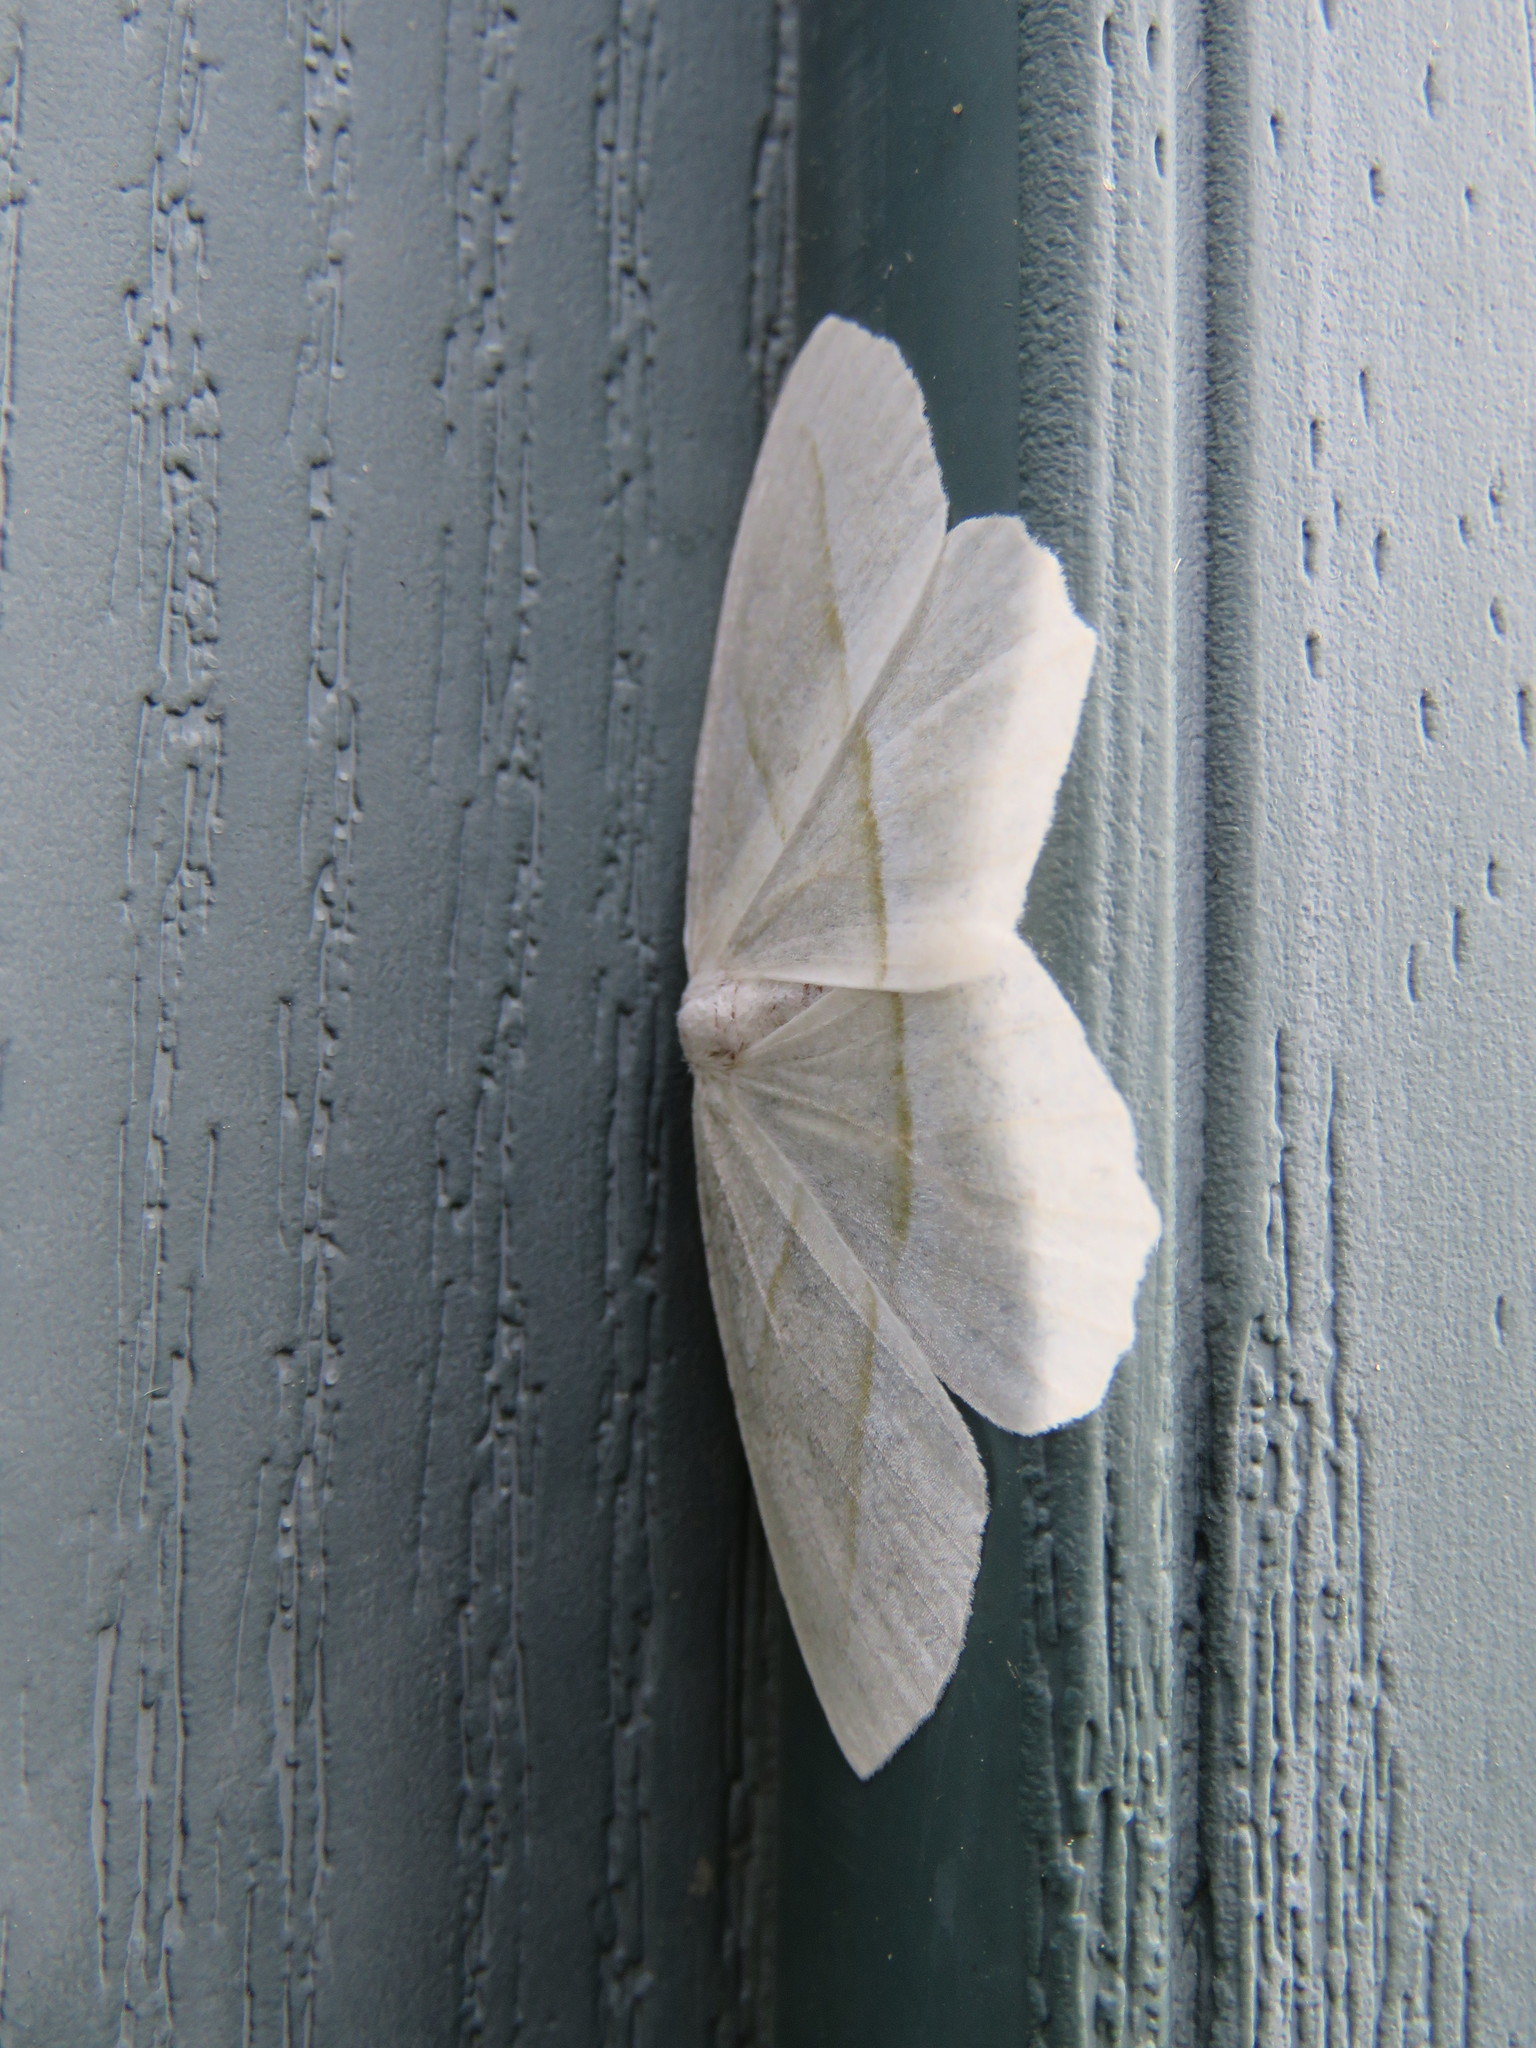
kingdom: Animalia
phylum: Arthropoda
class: Insecta
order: Lepidoptera
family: Geometridae
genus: Campaea
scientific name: Campaea perlata
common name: Fringed looper
